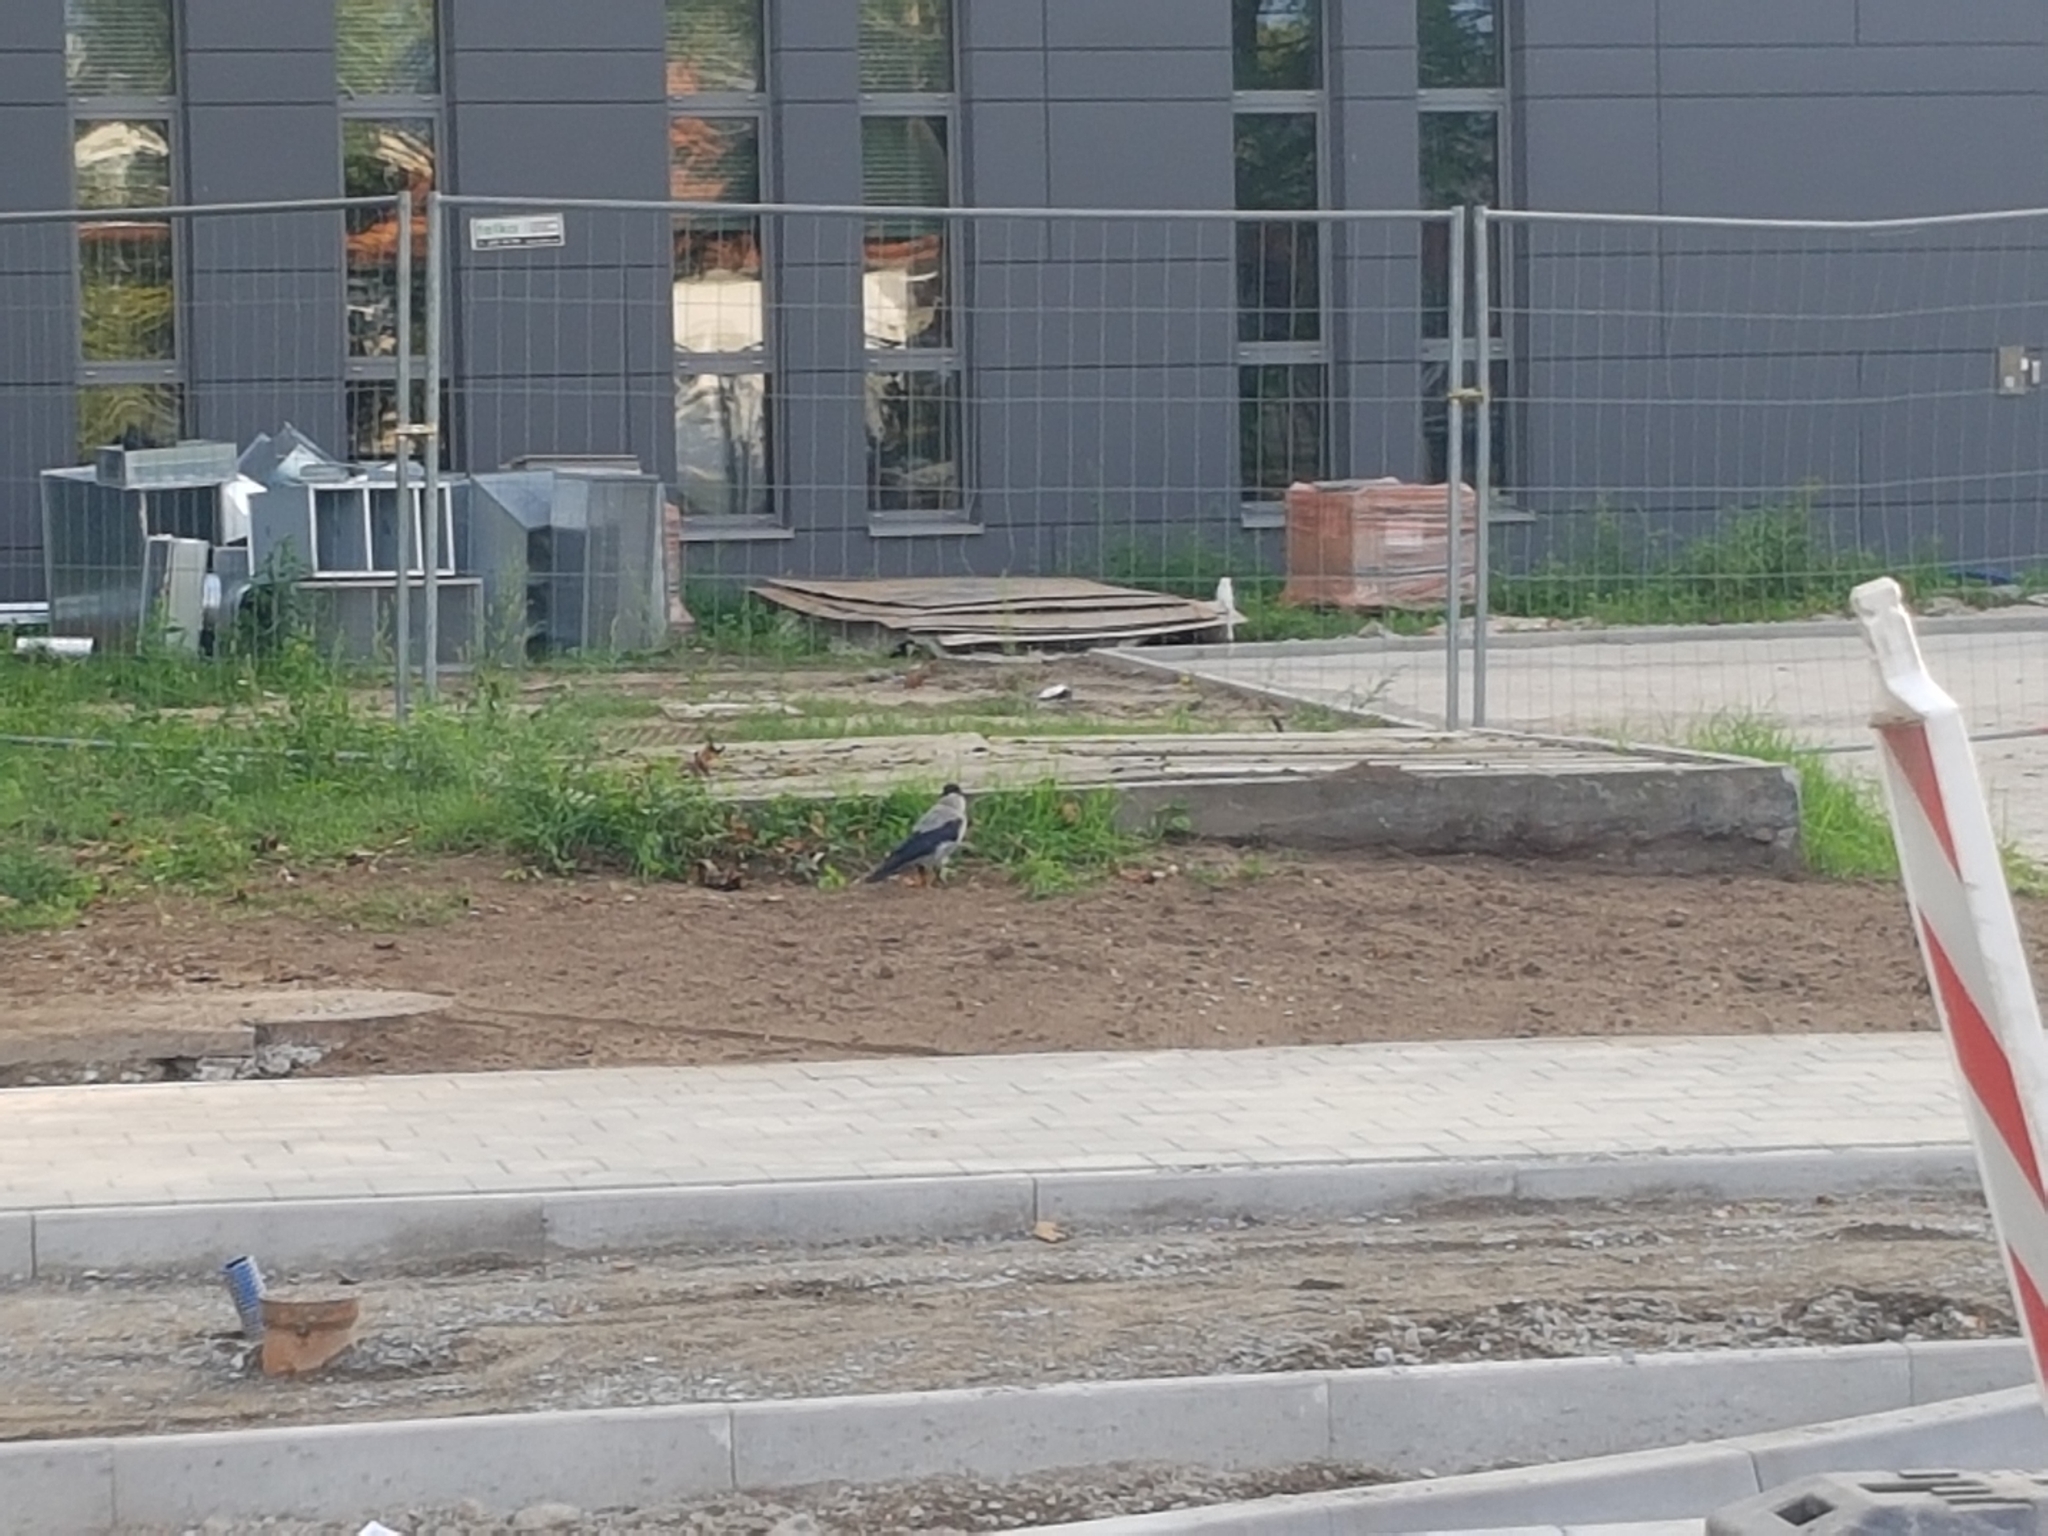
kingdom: Animalia
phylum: Chordata
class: Aves
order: Passeriformes
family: Corvidae
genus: Corvus
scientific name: Corvus cornix
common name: Hooded crow
